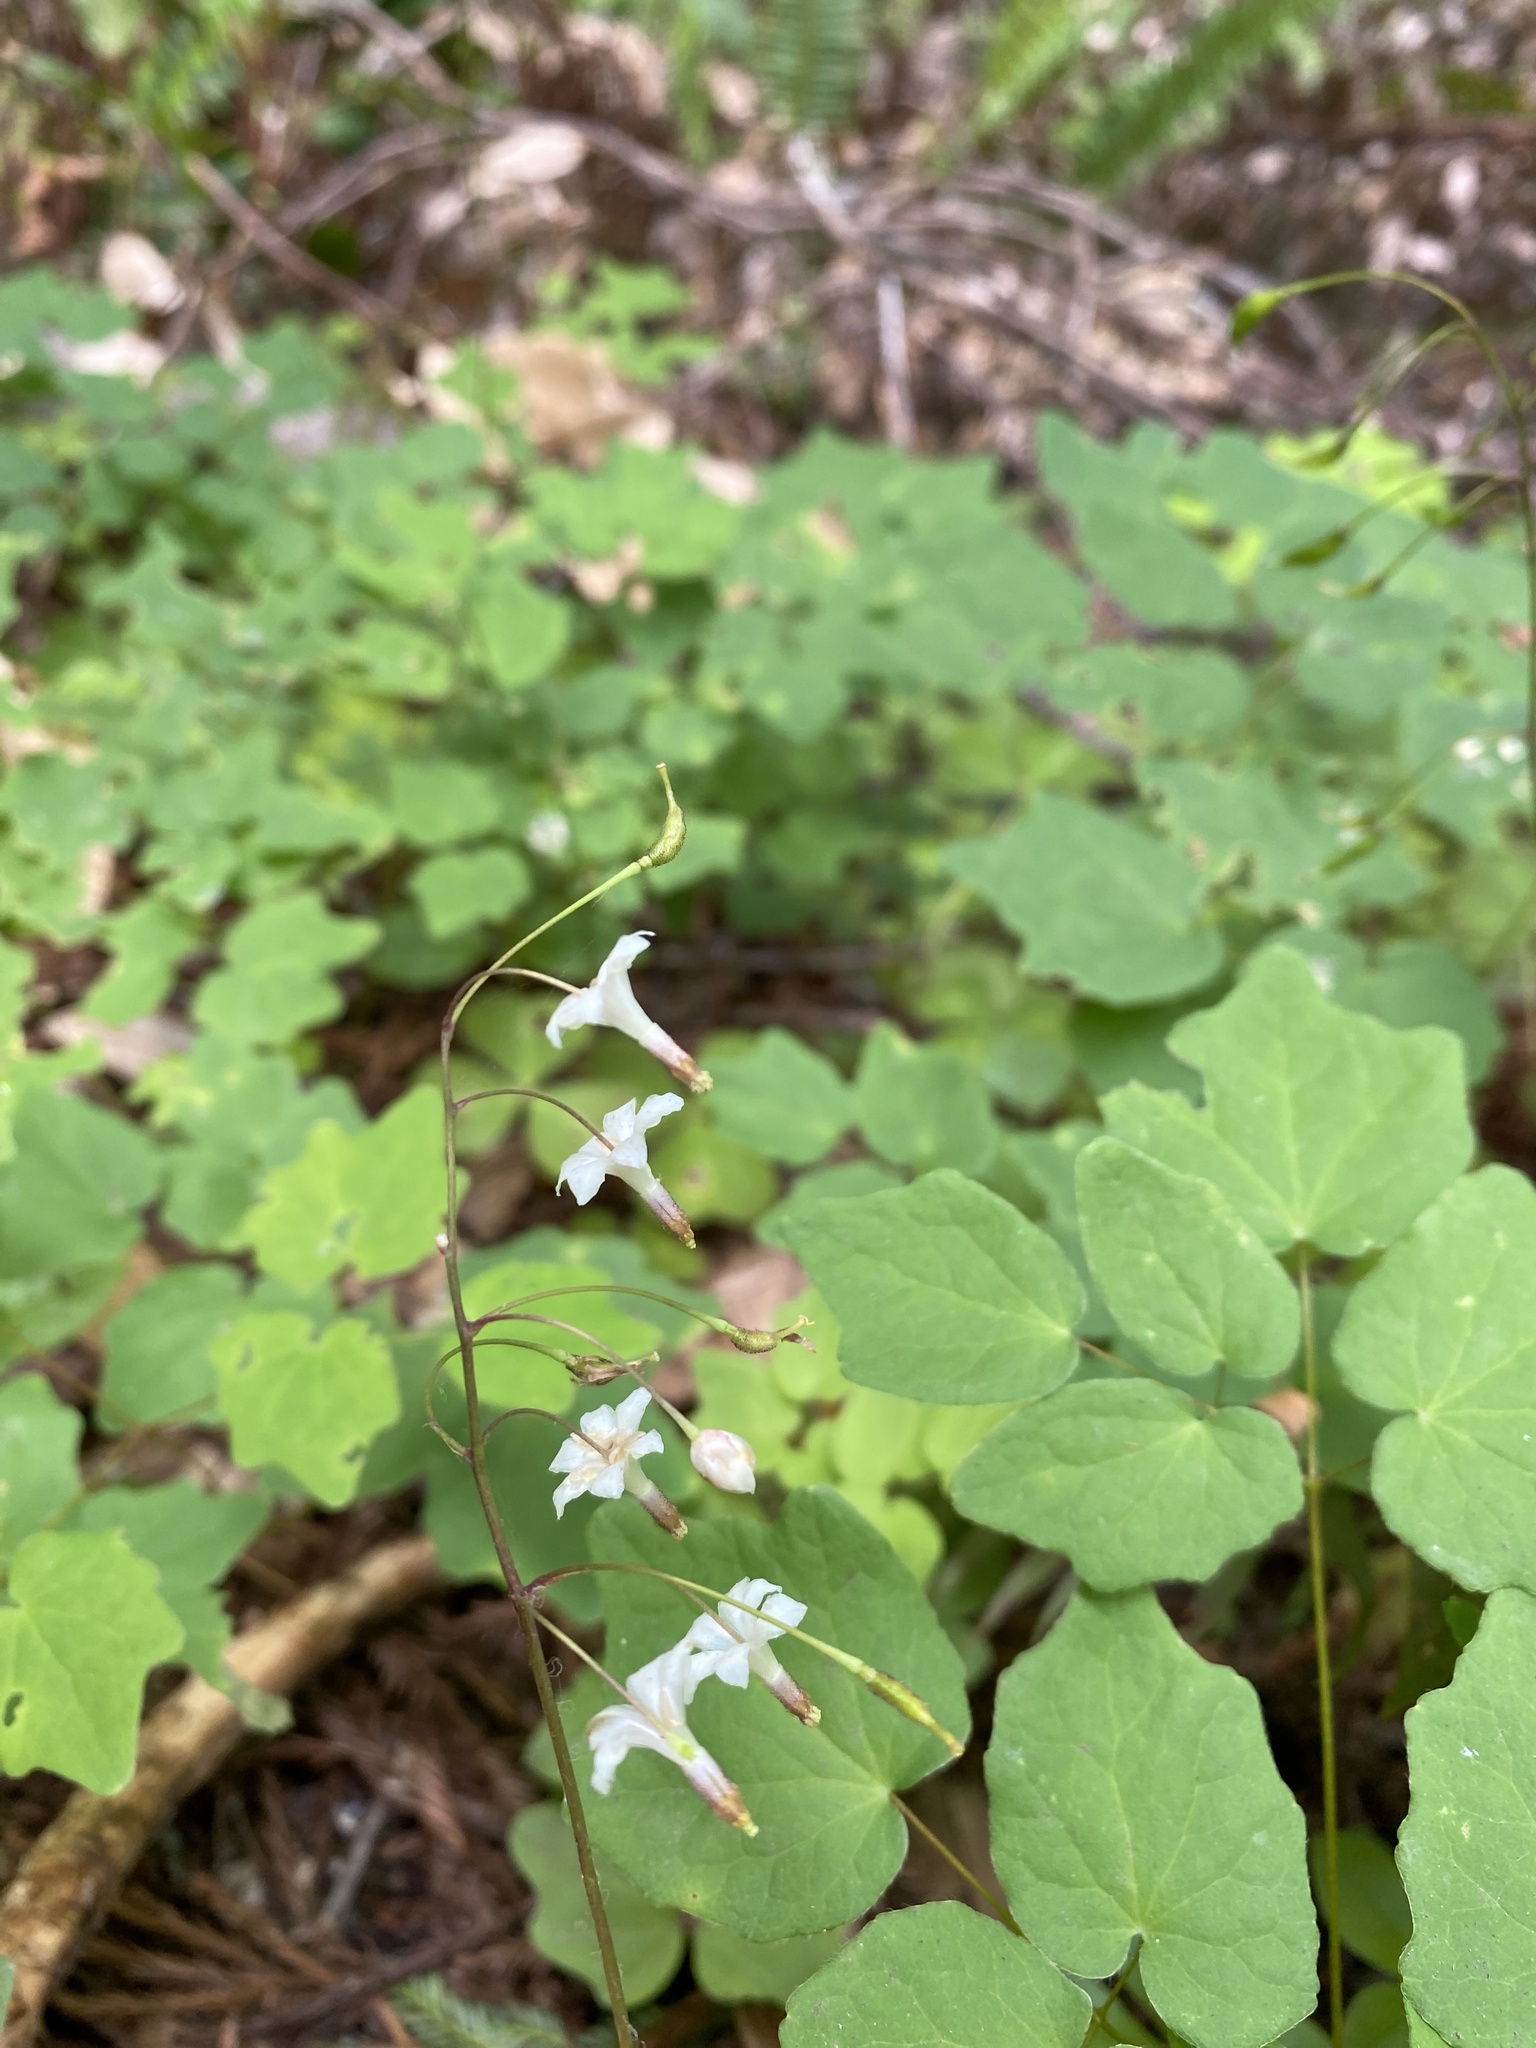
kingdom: Plantae
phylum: Tracheophyta
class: Magnoliopsida
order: Ranunculales
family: Berberidaceae
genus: Vancouveria
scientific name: Vancouveria hexandra
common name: Northern inside-out-flower
